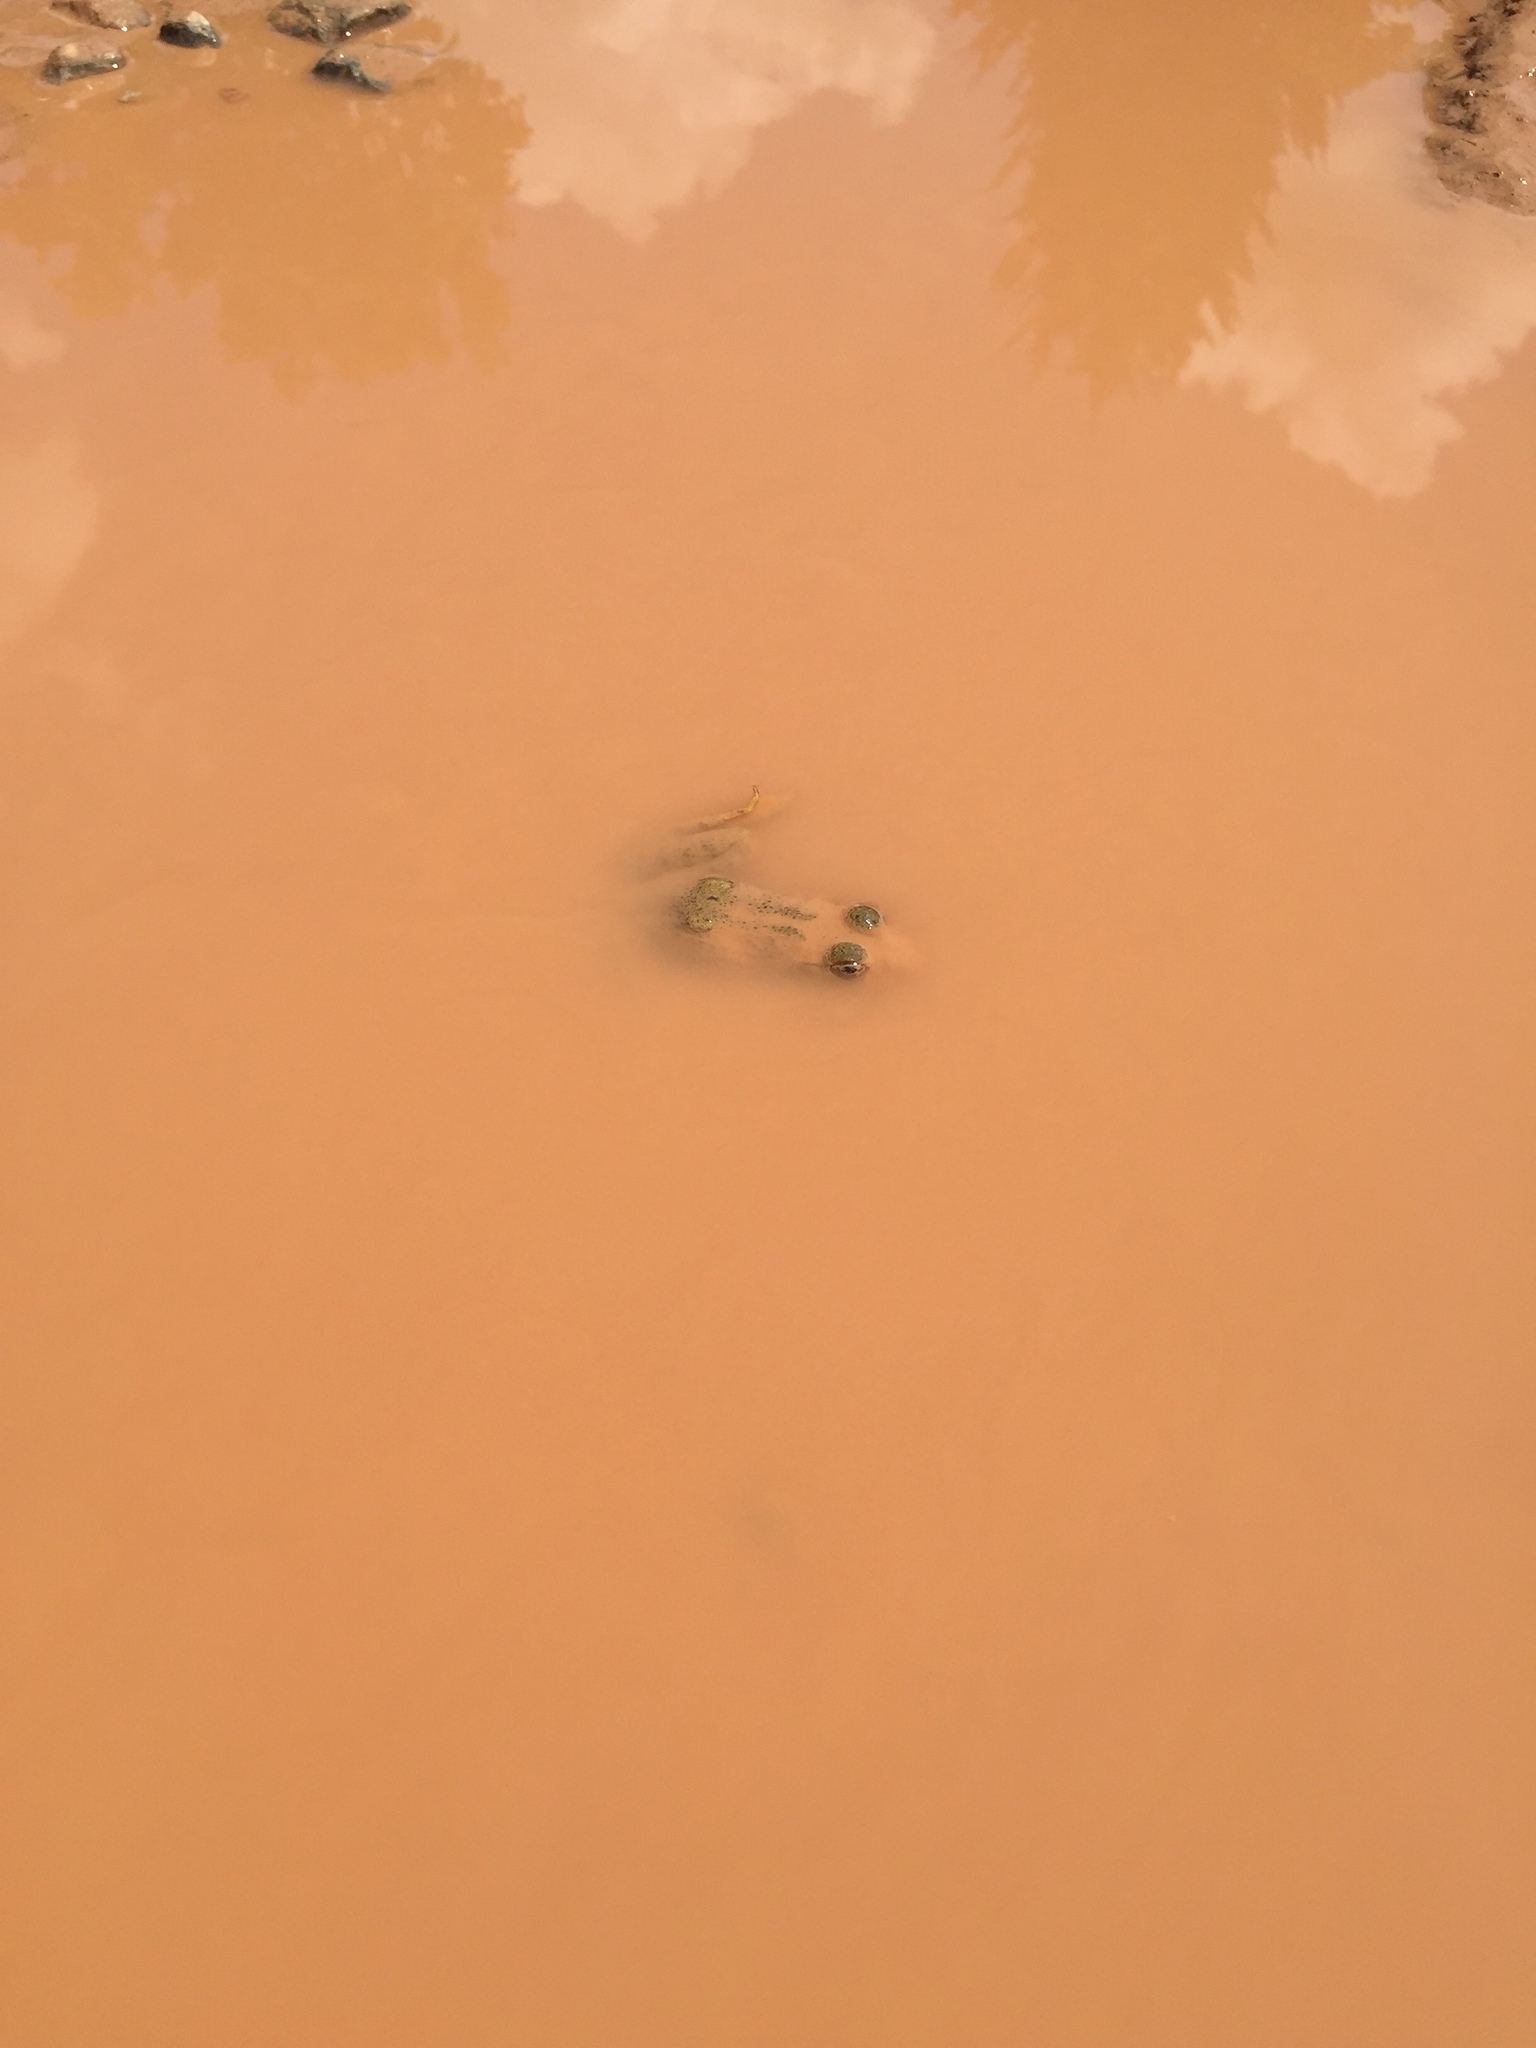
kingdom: Animalia
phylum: Chordata
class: Amphibia
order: Anura
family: Ranidae
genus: Lithobates
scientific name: Lithobates
